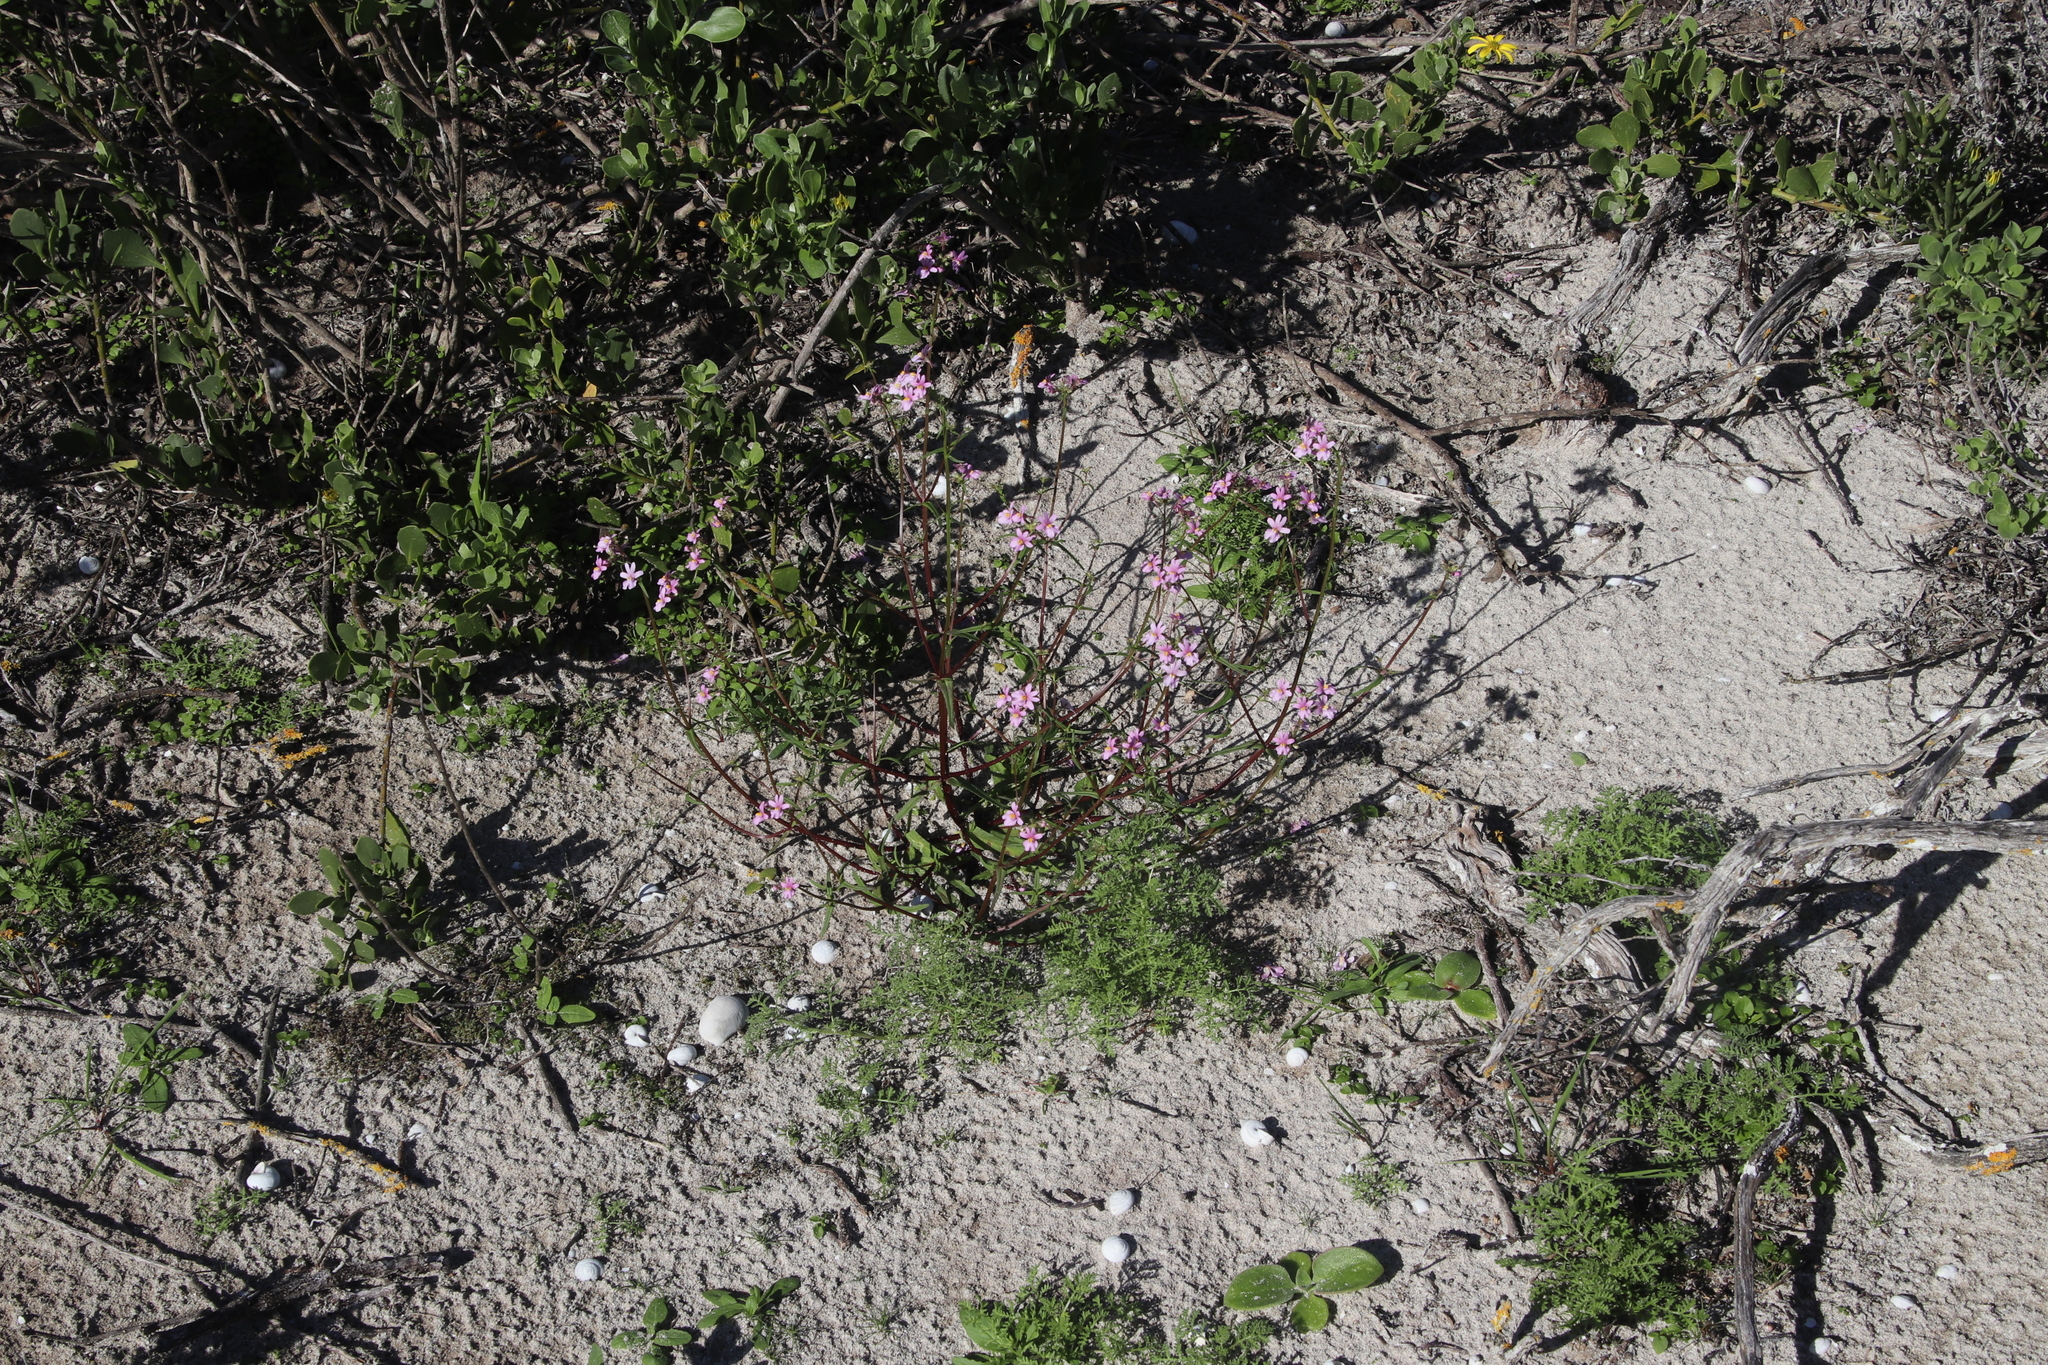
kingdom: Plantae
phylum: Tracheophyta
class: Magnoliopsida
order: Lamiales
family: Scrophulariaceae
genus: Nemesia
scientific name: Nemesia affinis
